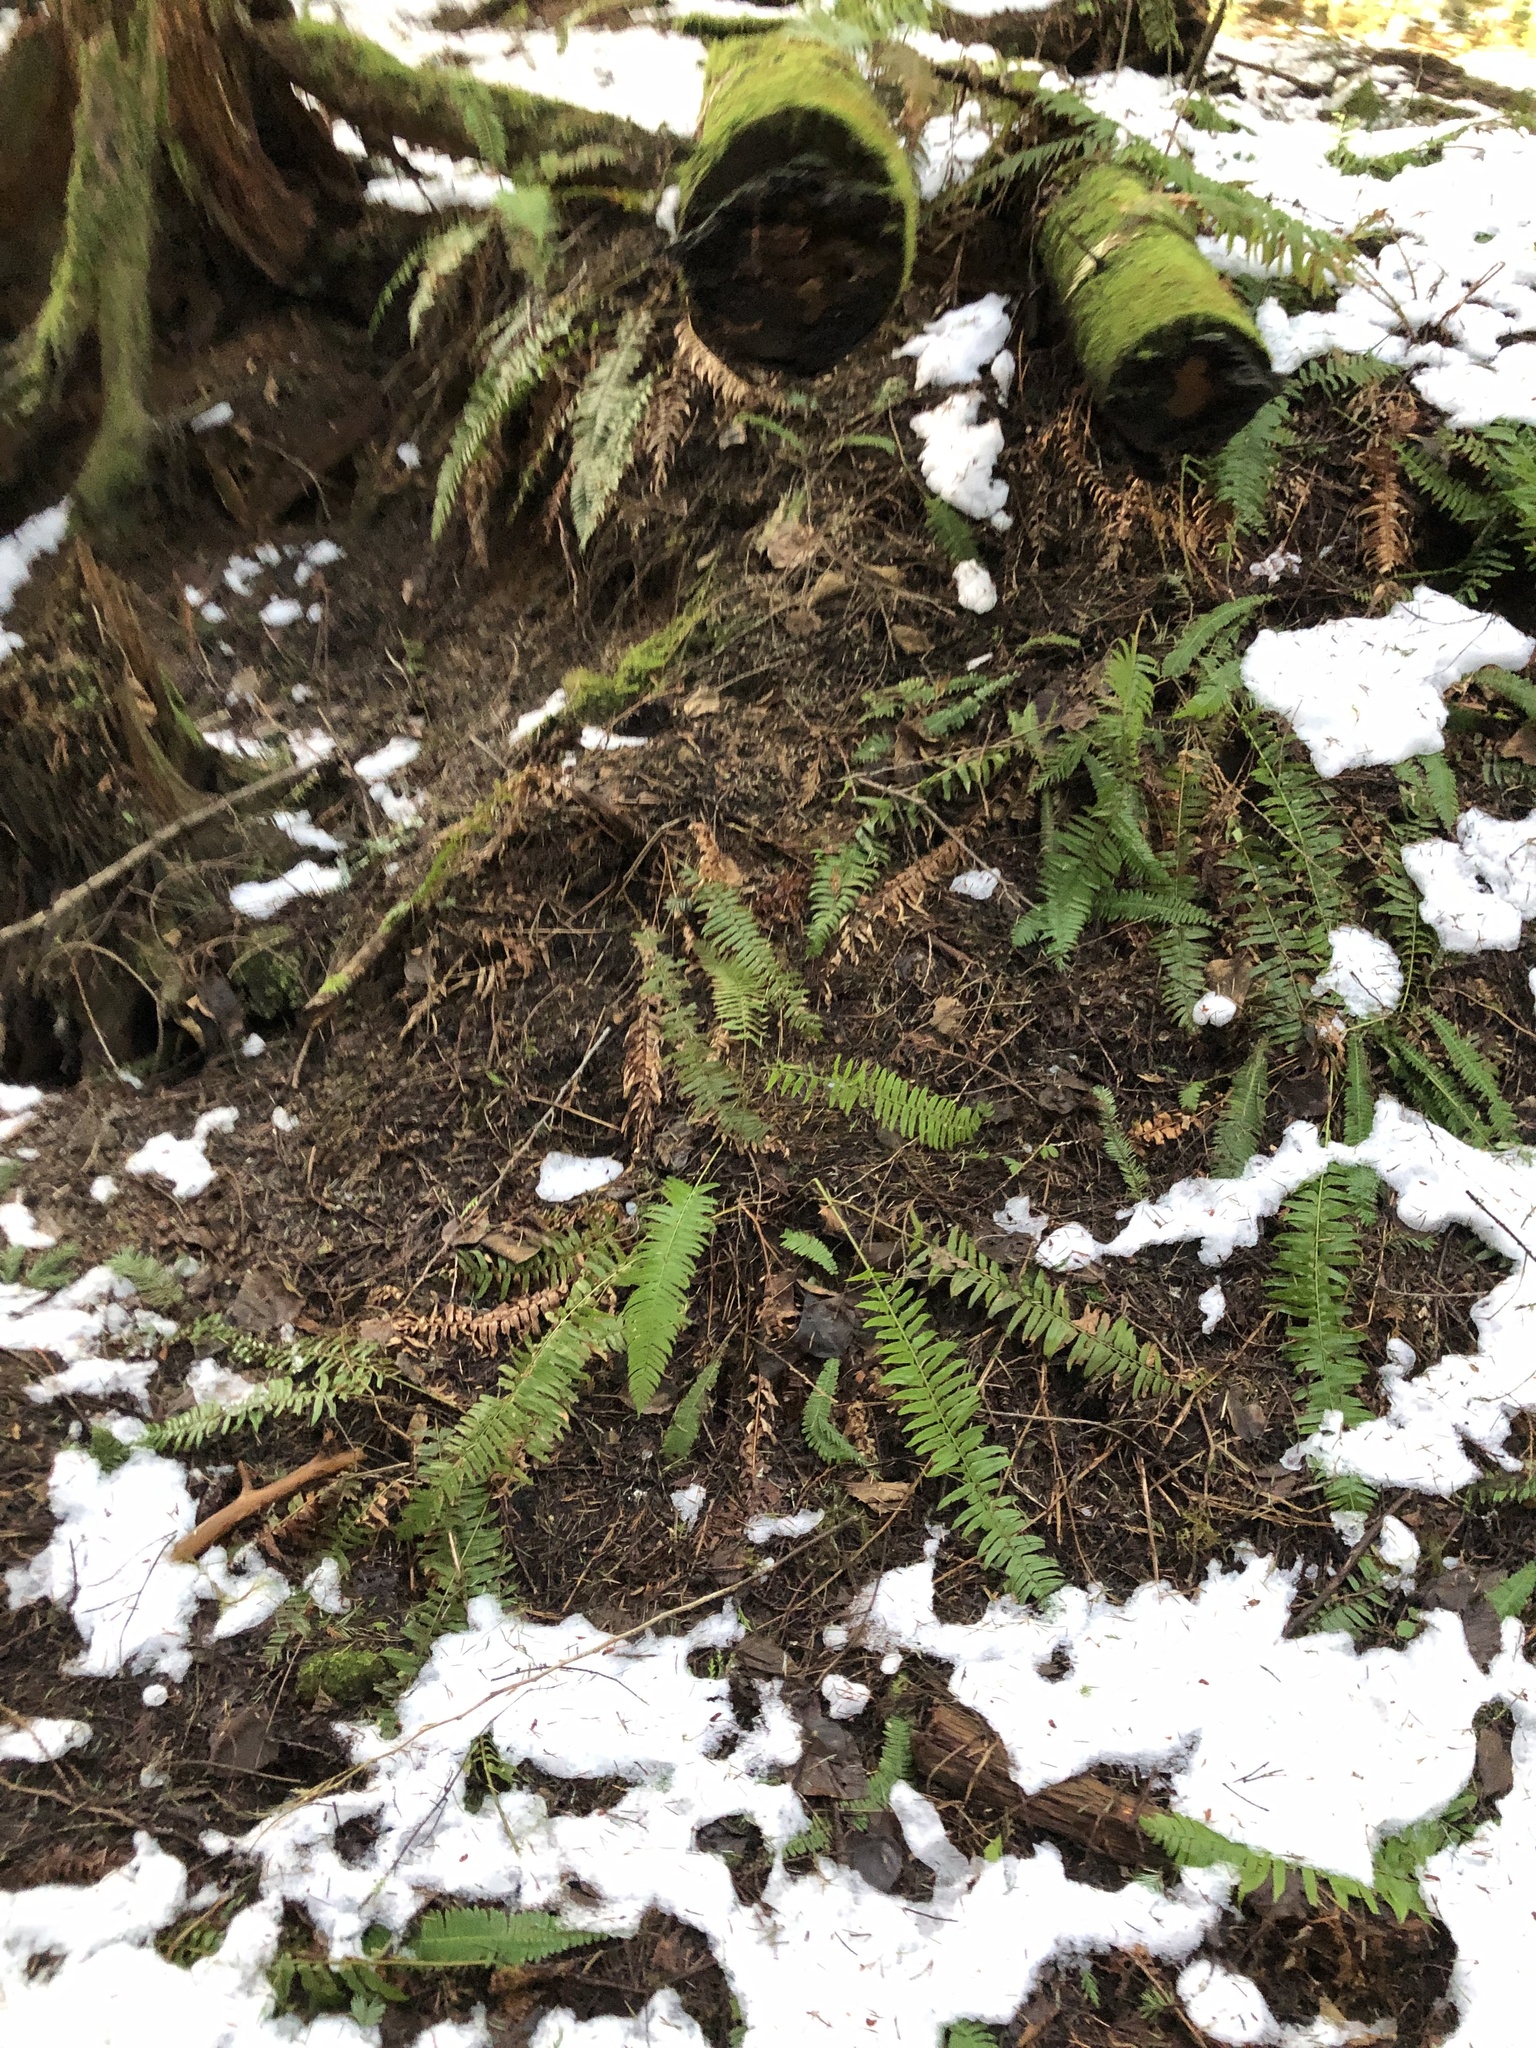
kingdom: Plantae
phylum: Tracheophyta
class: Polypodiopsida
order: Polypodiales
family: Dryopteridaceae
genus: Polystichum
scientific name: Polystichum munitum
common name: Western sword-fern
